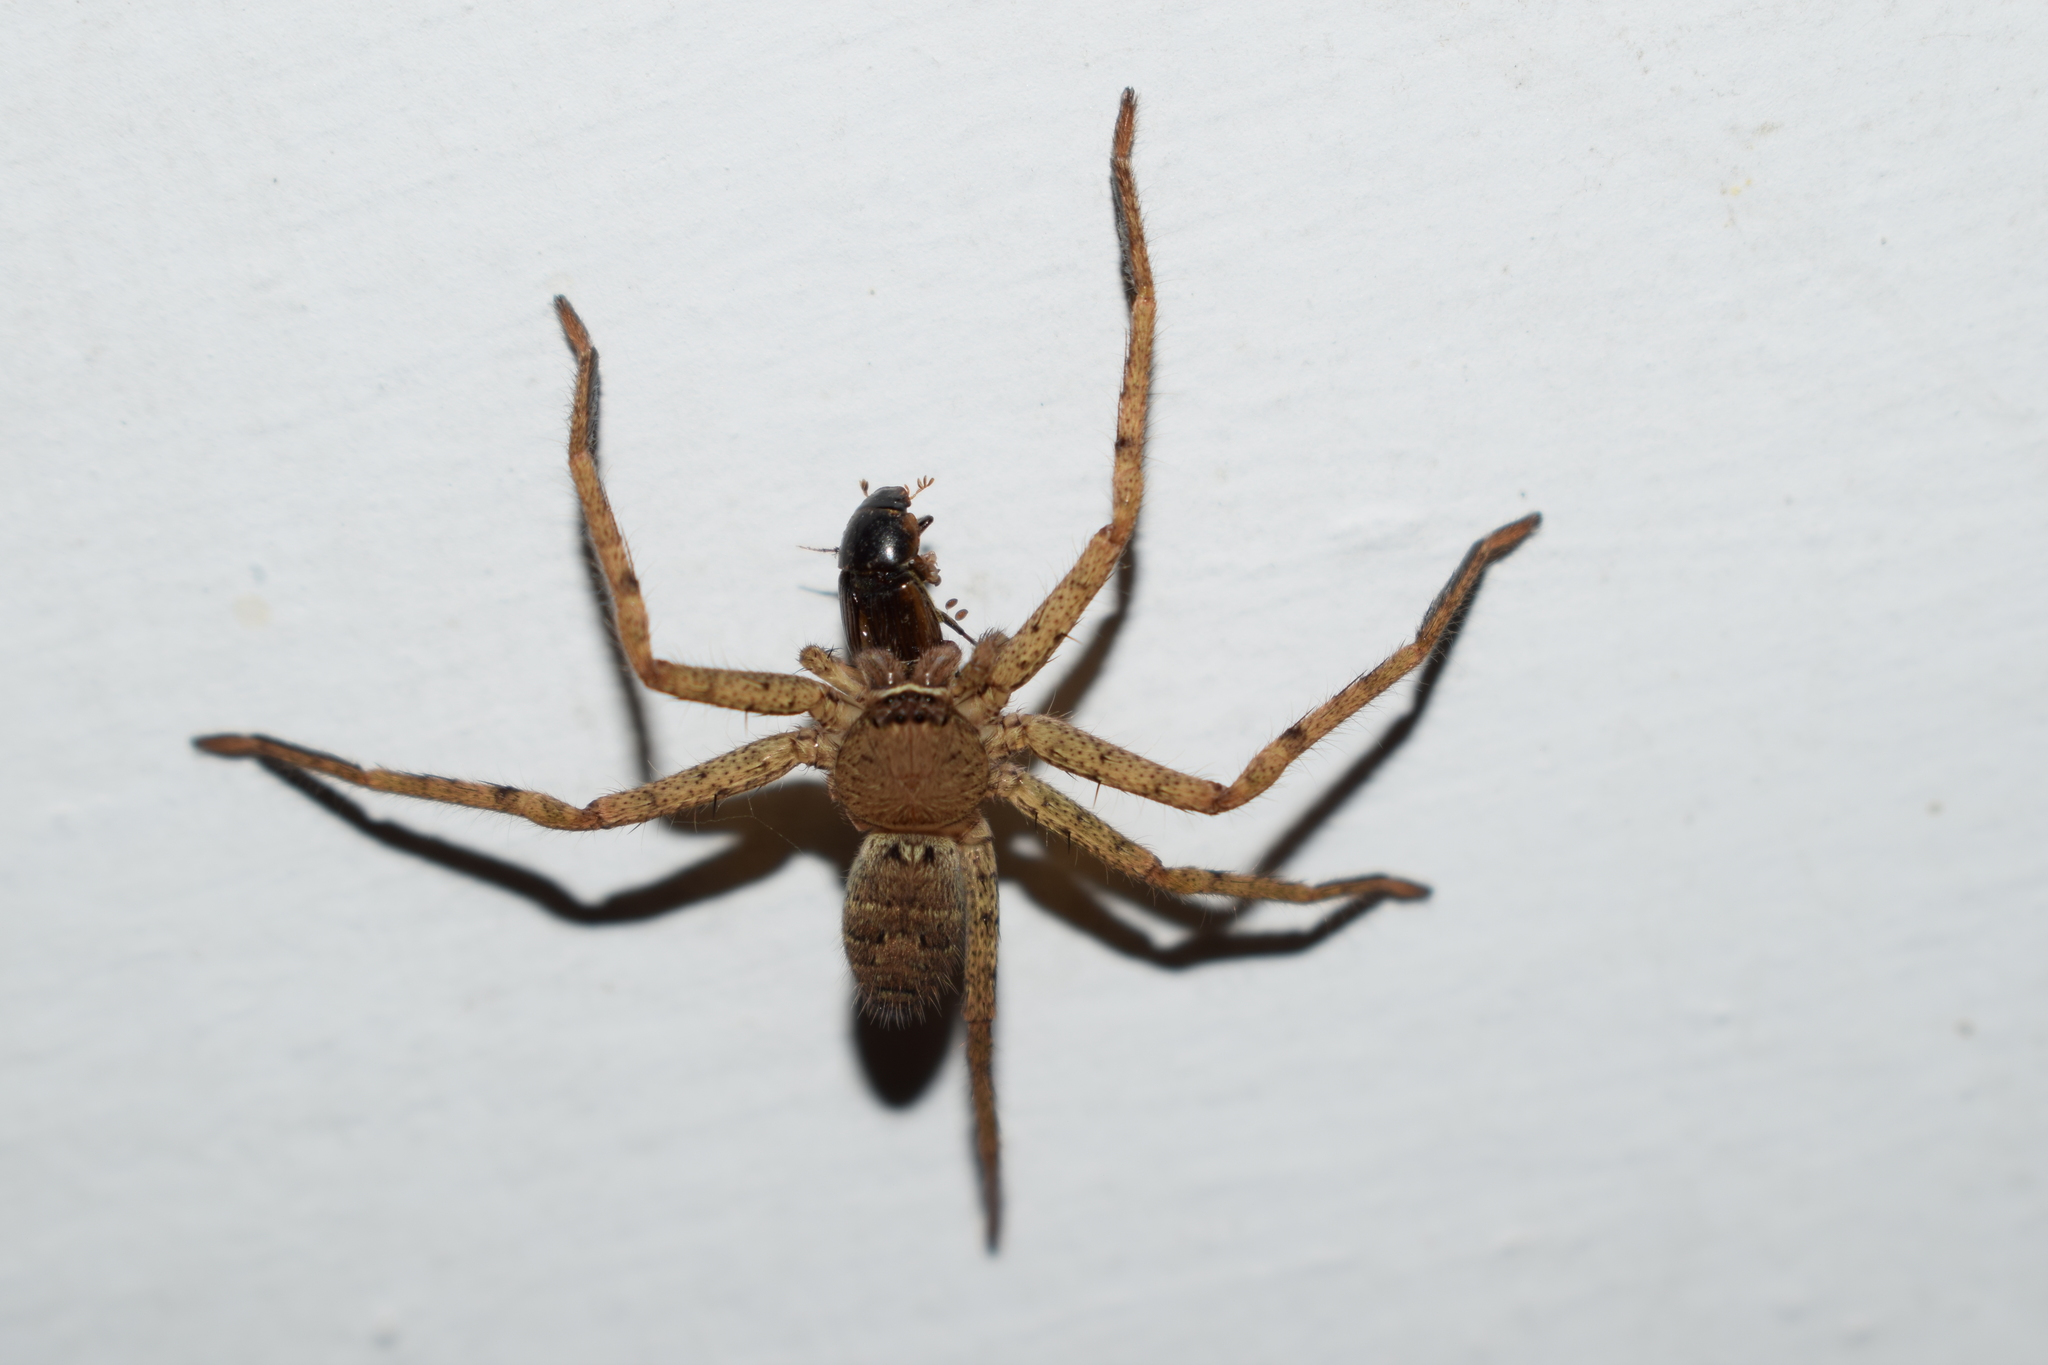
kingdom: Animalia
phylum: Arthropoda
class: Arachnida
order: Araneae
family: Sparassidae
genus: Heteropoda
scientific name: Heteropoda venatoria
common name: Huntsman spider
